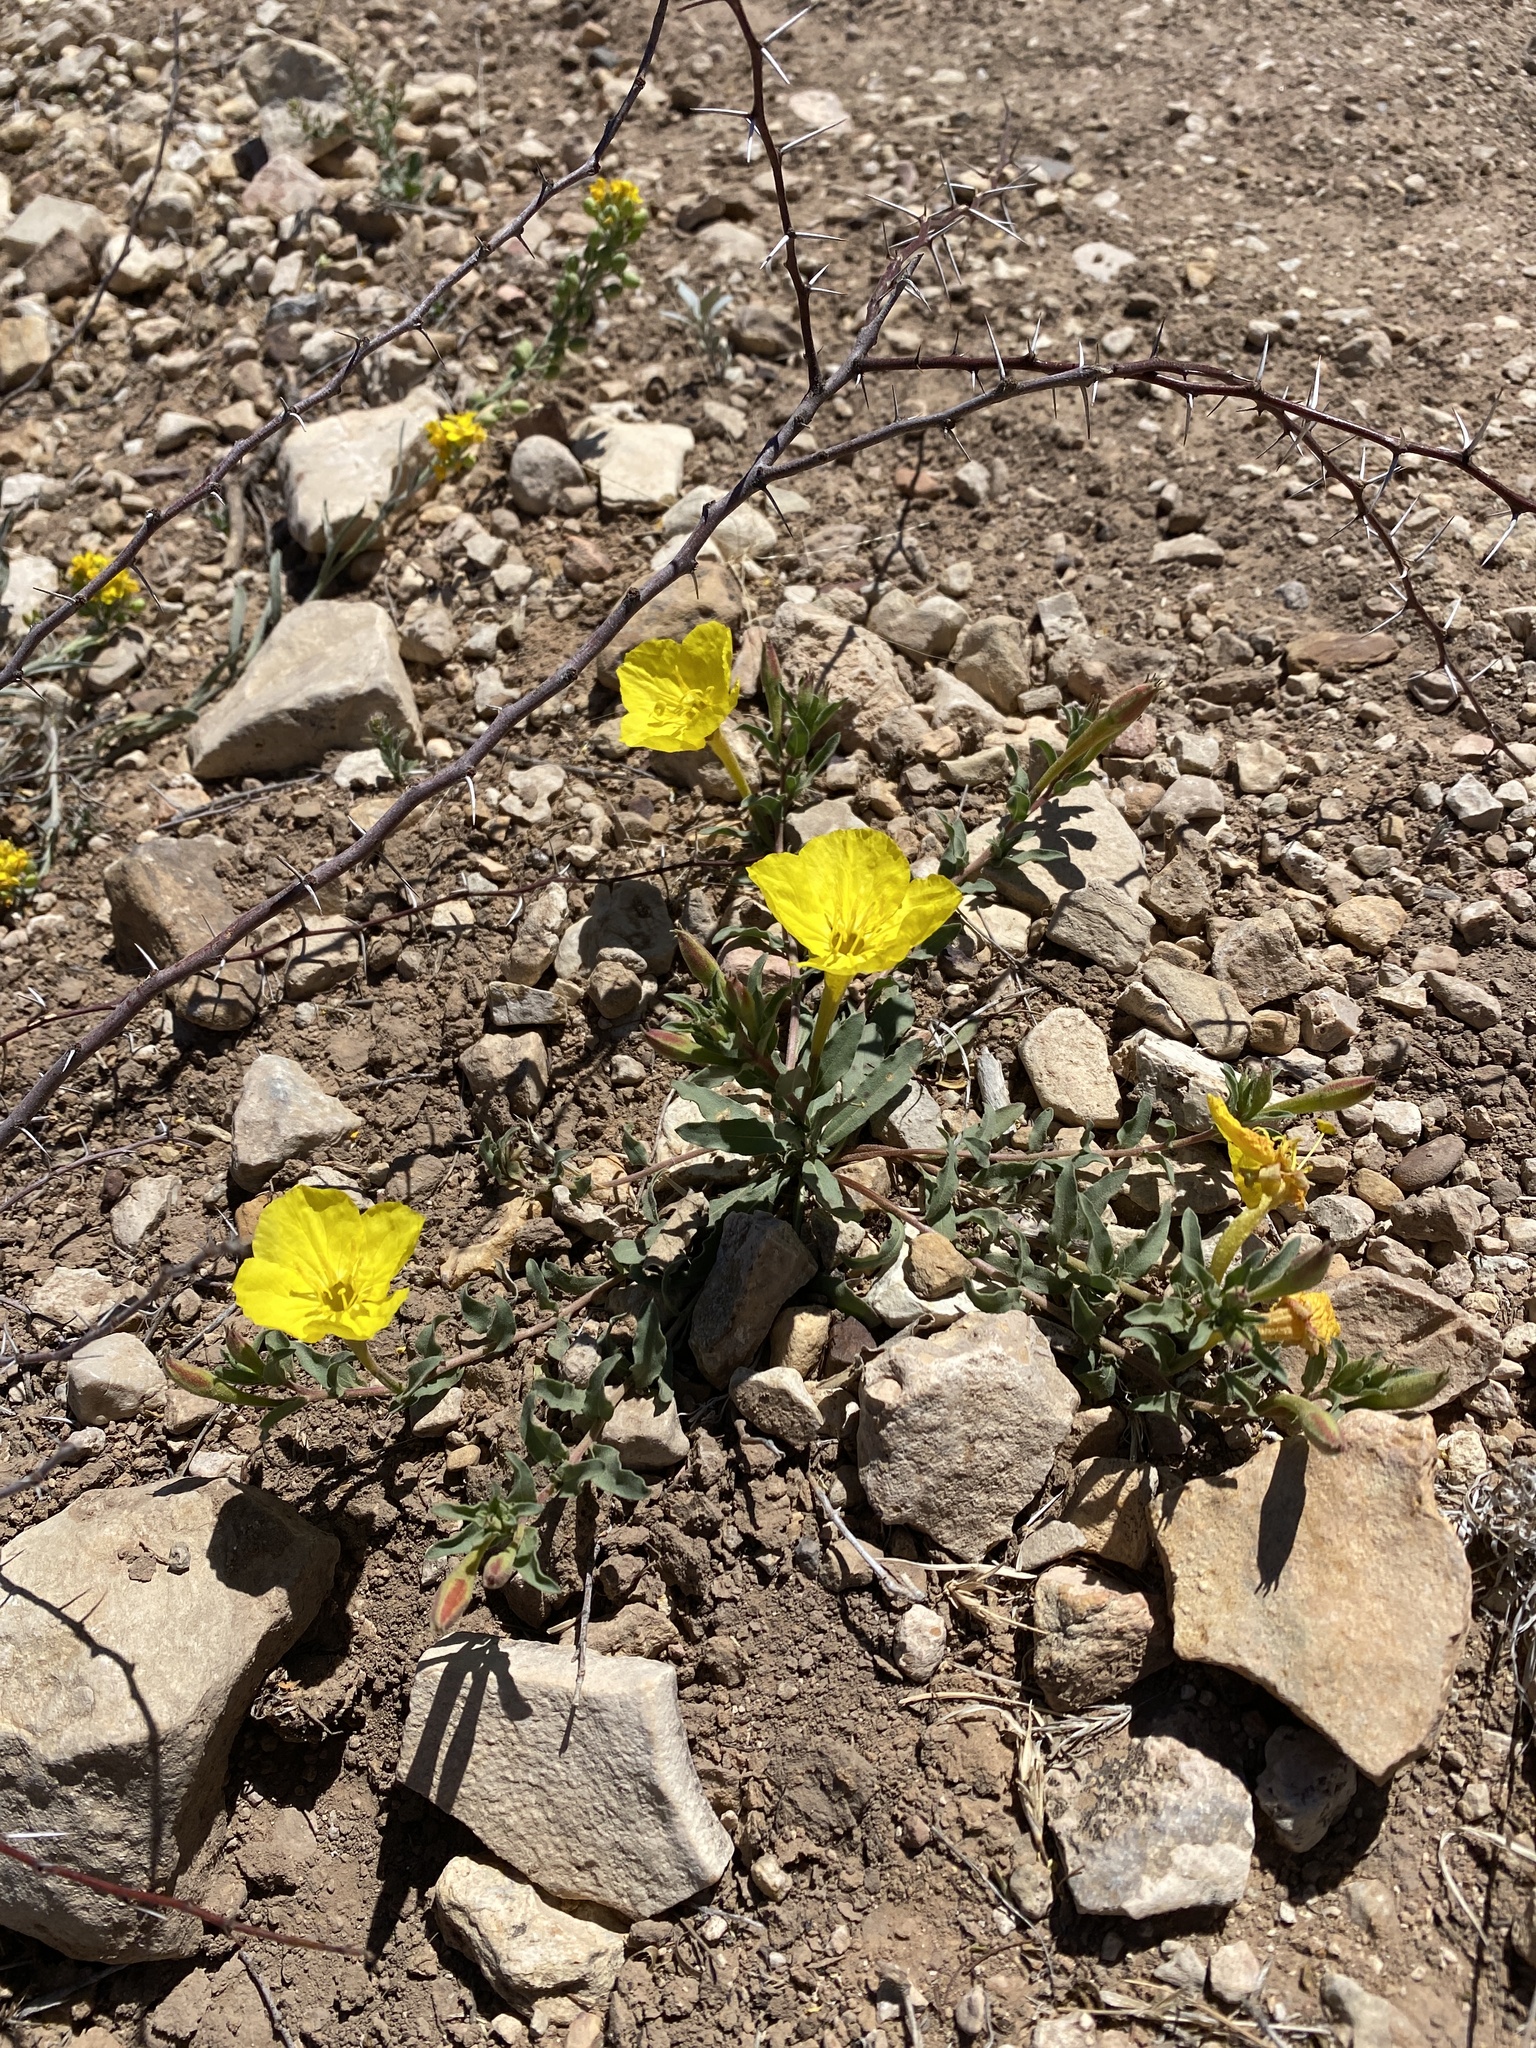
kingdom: Plantae
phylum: Tracheophyta
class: Magnoliopsida
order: Myrtales
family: Onagraceae
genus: Oenothera
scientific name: Oenothera hartwegii
